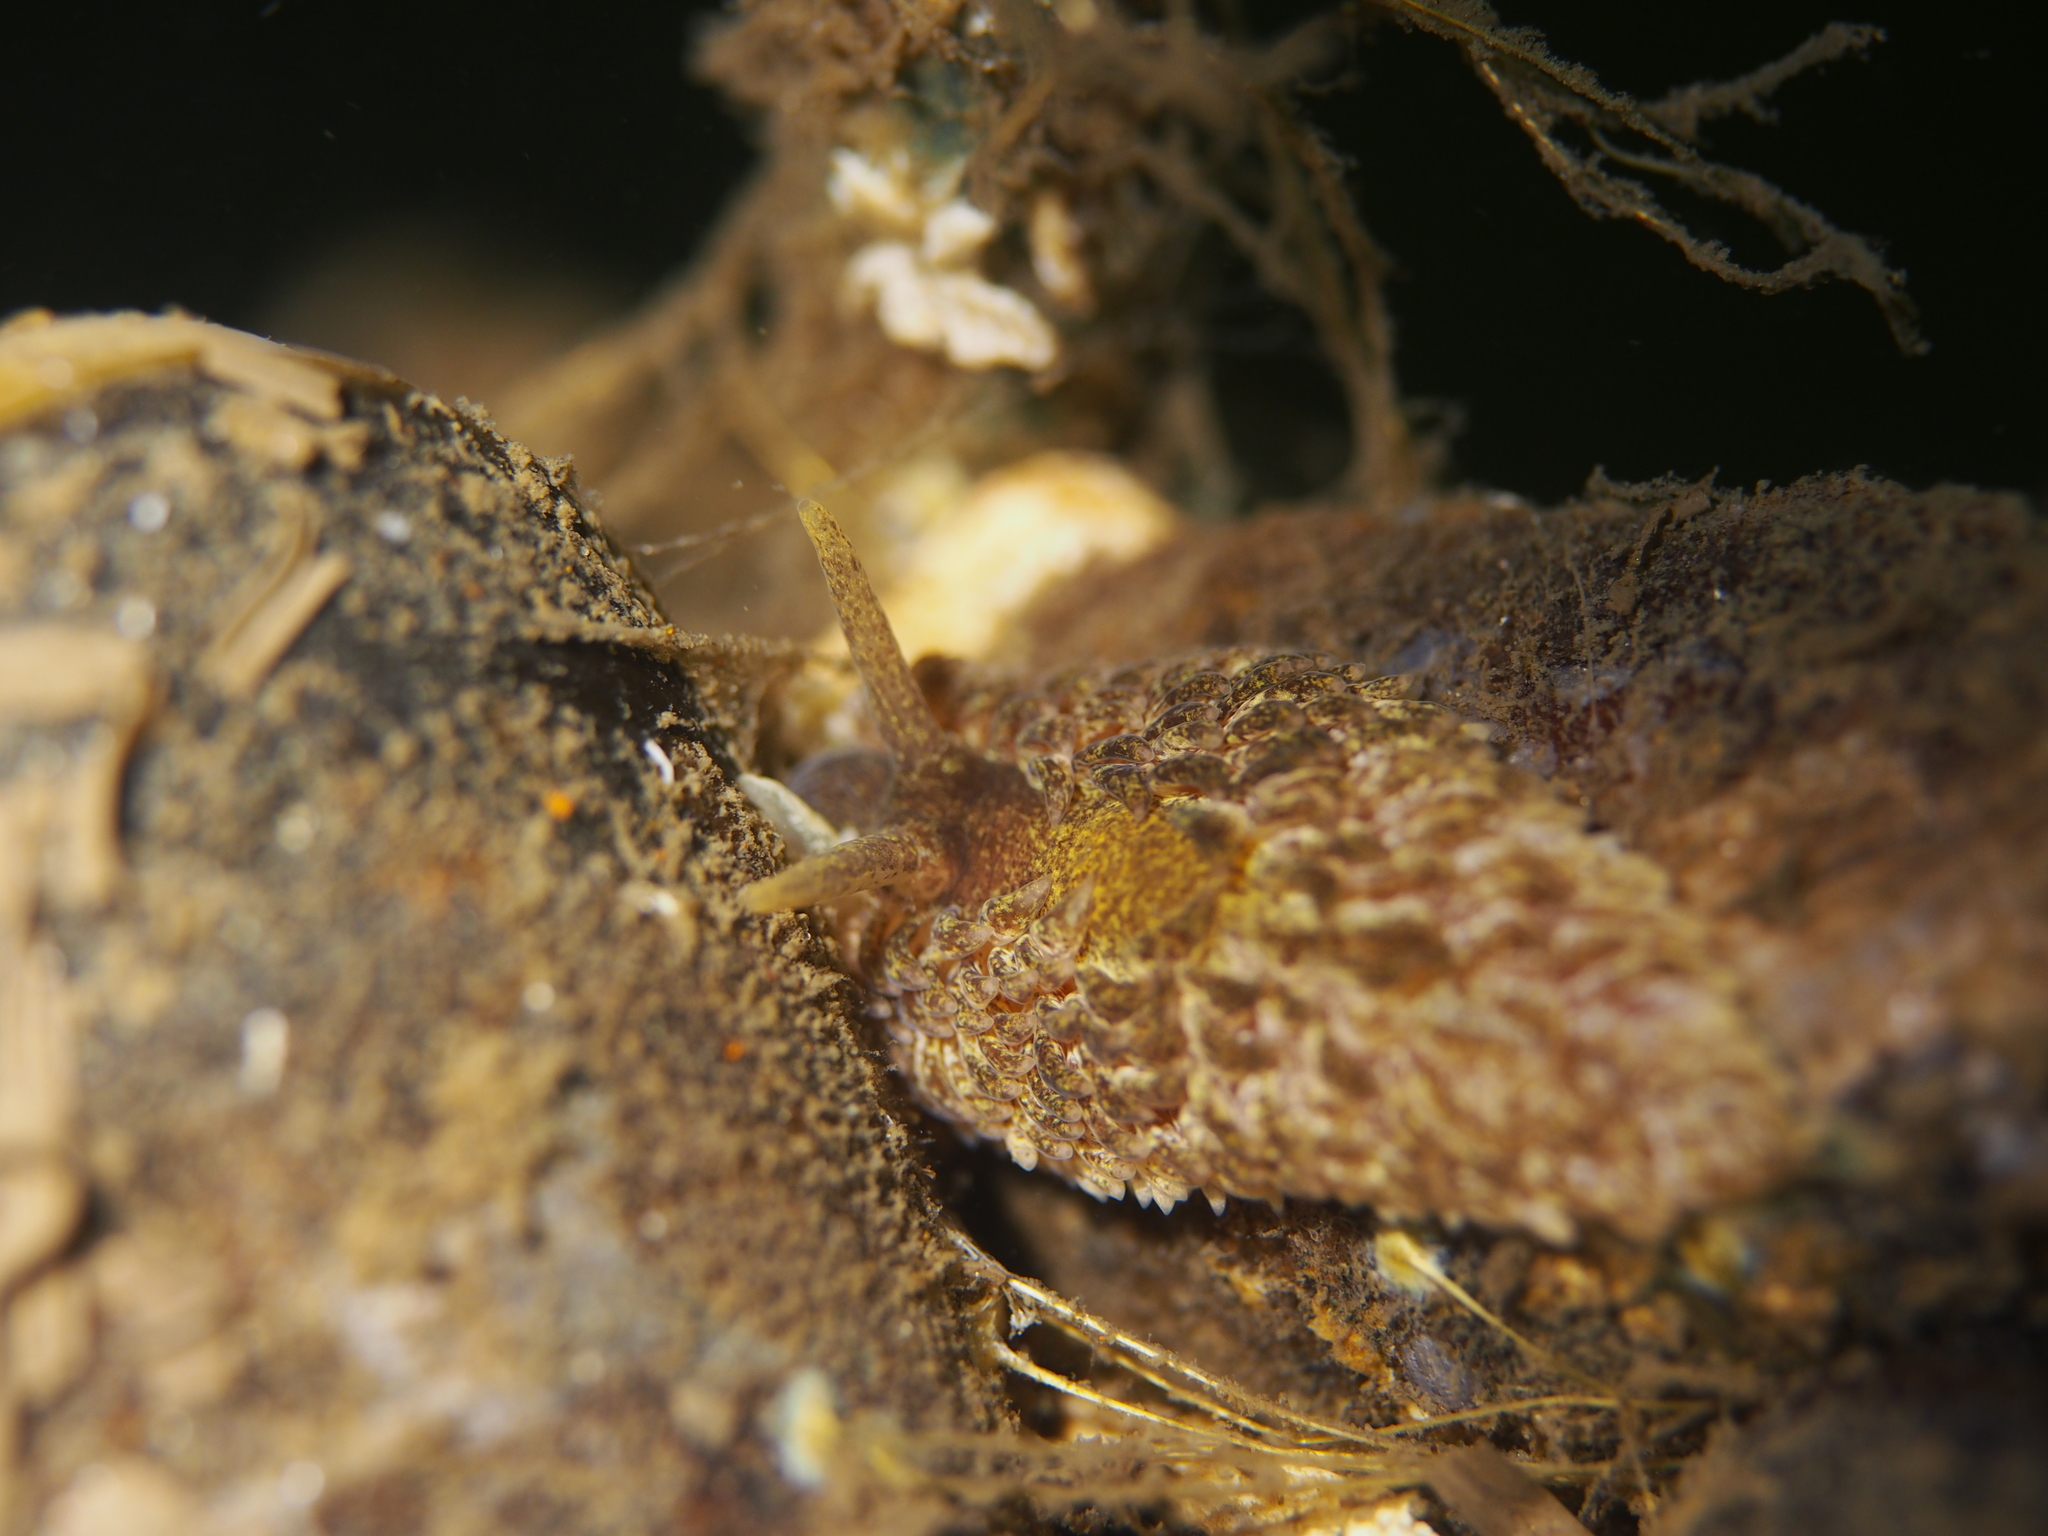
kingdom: Animalia
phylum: Mollusca
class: Gastropoda
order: Nudibranchia
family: Aeolidiidae
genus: Aeolidia
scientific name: Aeolidia papillosa
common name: Common grey sea slug
